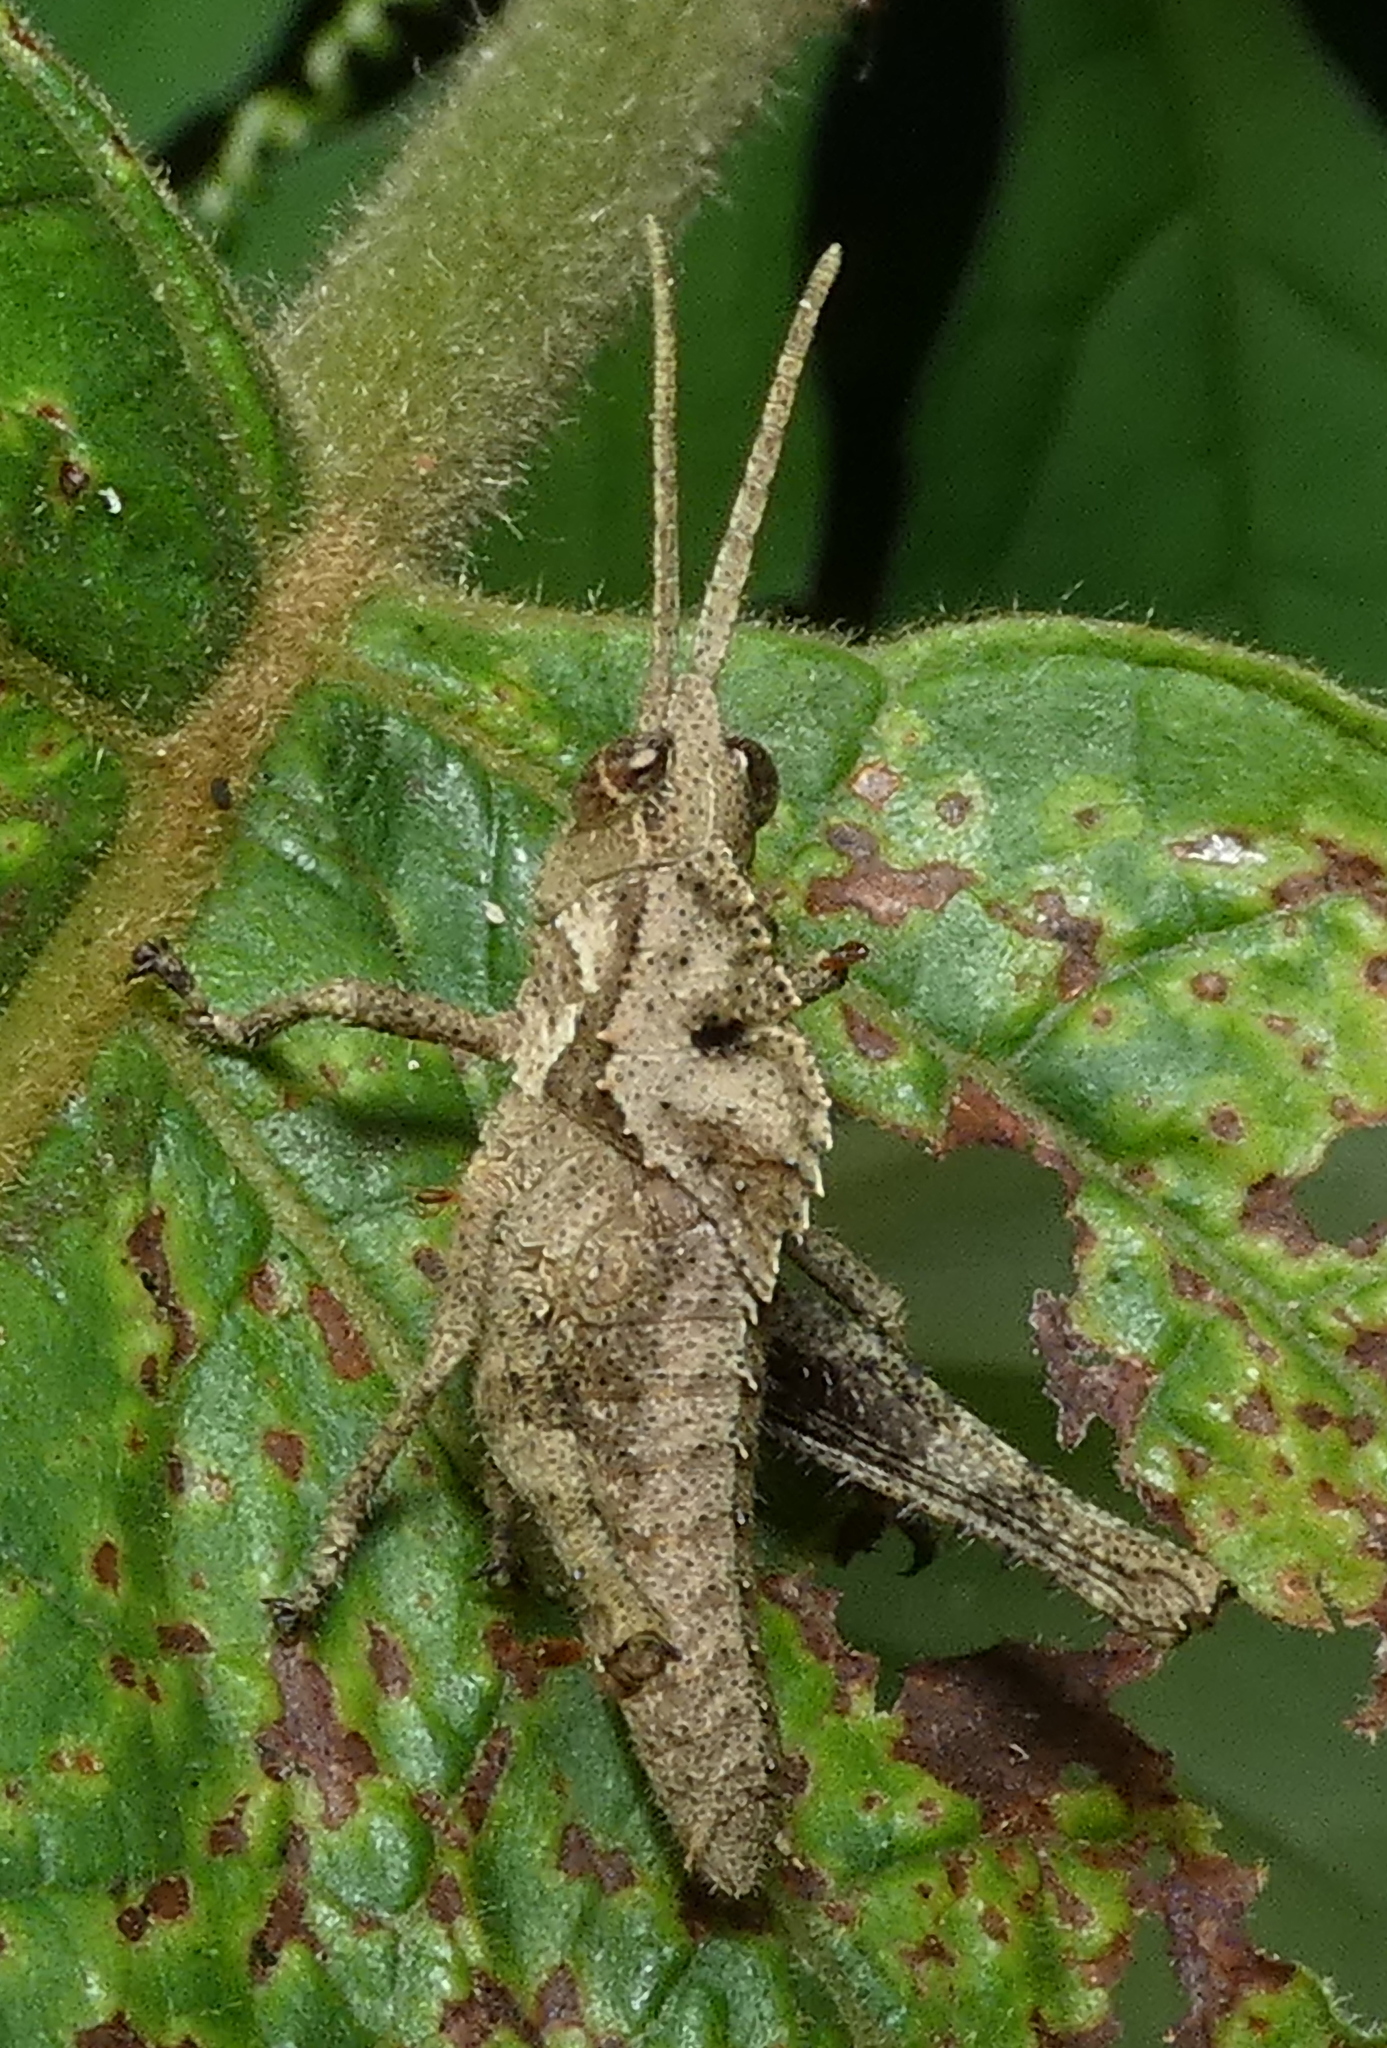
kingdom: Animalia
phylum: Arthropoda
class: Insecta
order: Orthoptera
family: Romaleidae
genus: Helionotus
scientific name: Helionotus mirabilis
